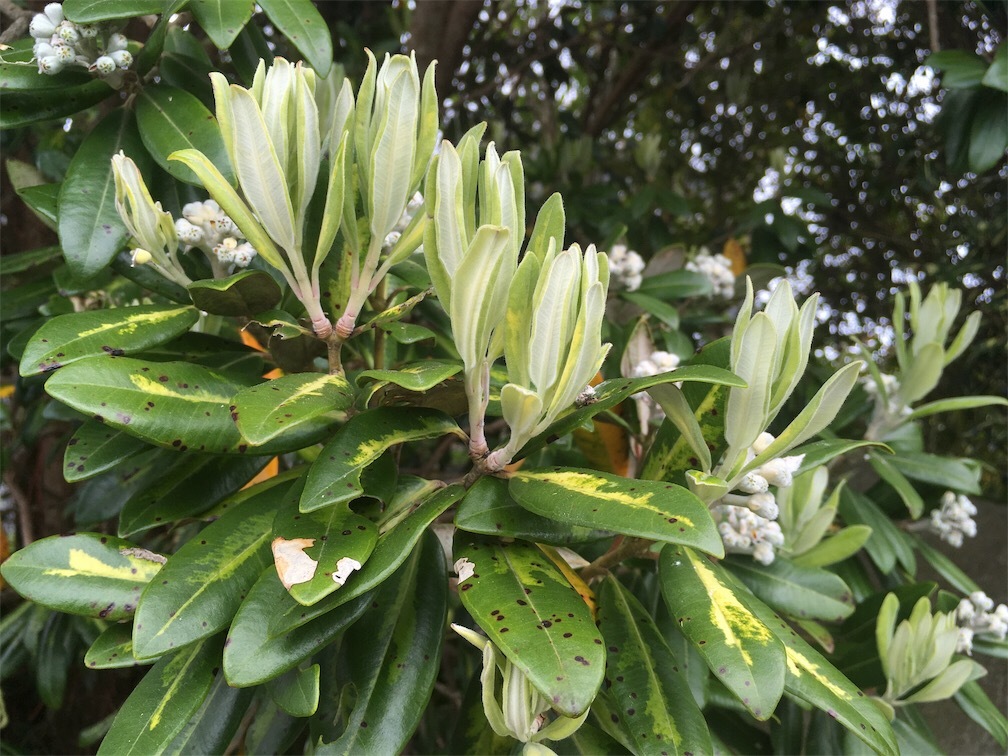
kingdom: Plantae
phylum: Tracheophyta
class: Magnoliopsida
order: Myrtales
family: Myrtaceae
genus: Metrosideros
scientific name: Metrosideros excelsa
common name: New zealand christmastree
